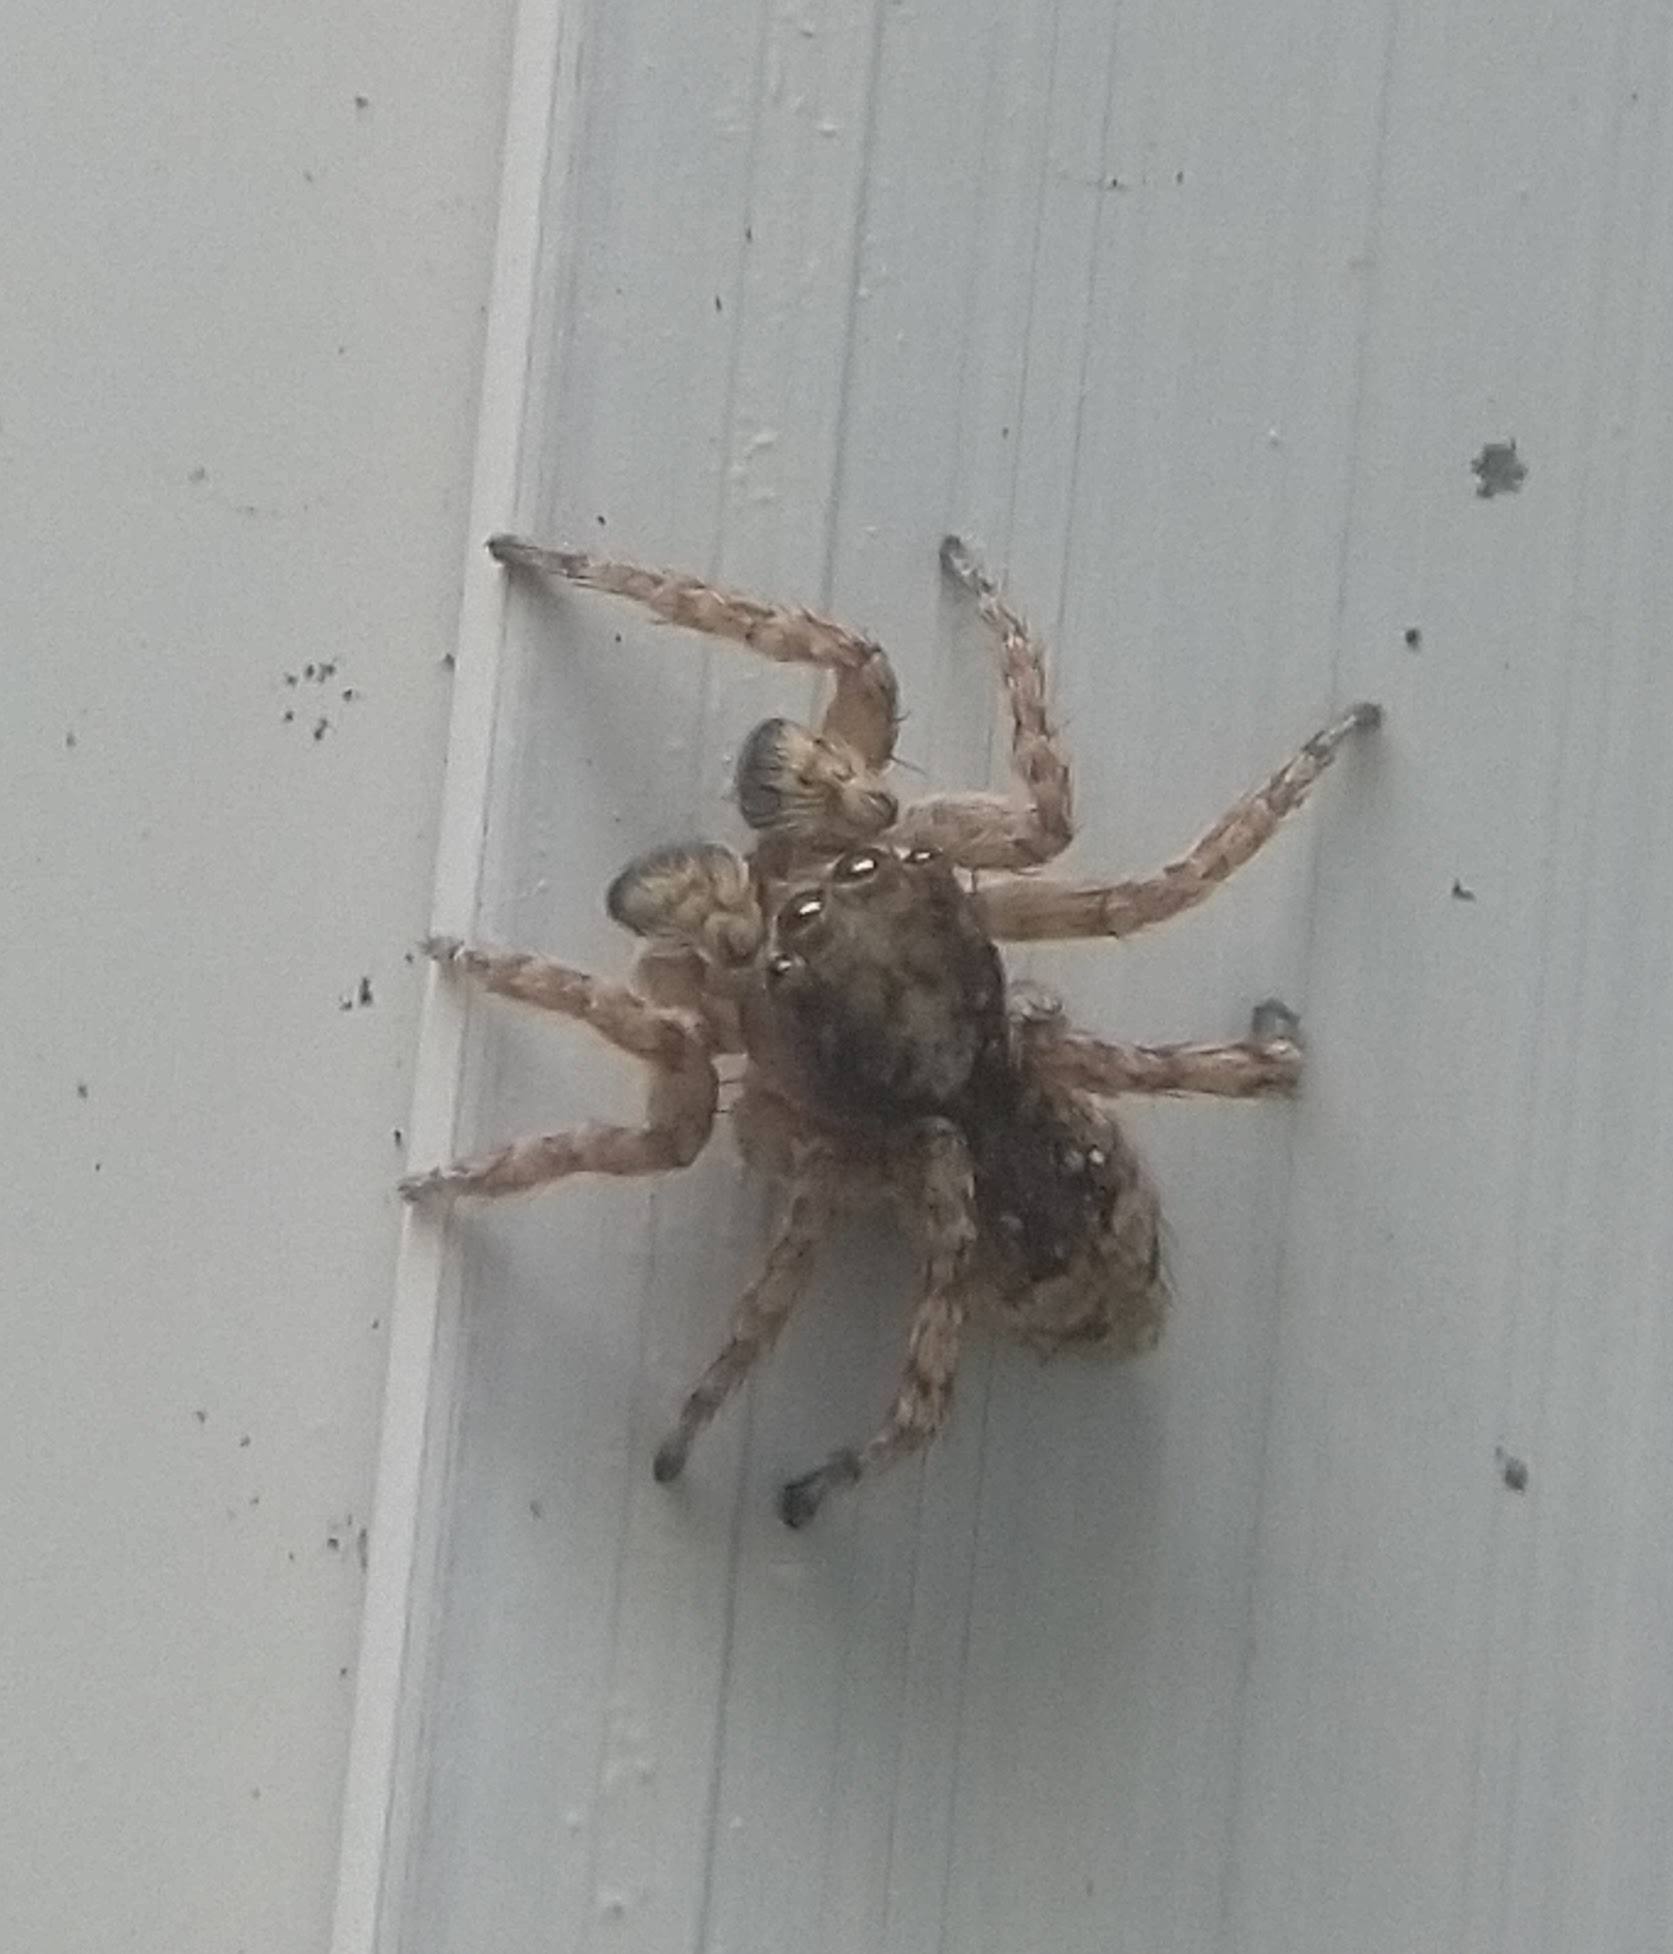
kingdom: Animalia
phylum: Arthropoda
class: Arachnida
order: Araneae
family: Salticidae
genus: Attulus
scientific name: Attulus fasciger
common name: Asiatic wall jumping spider
